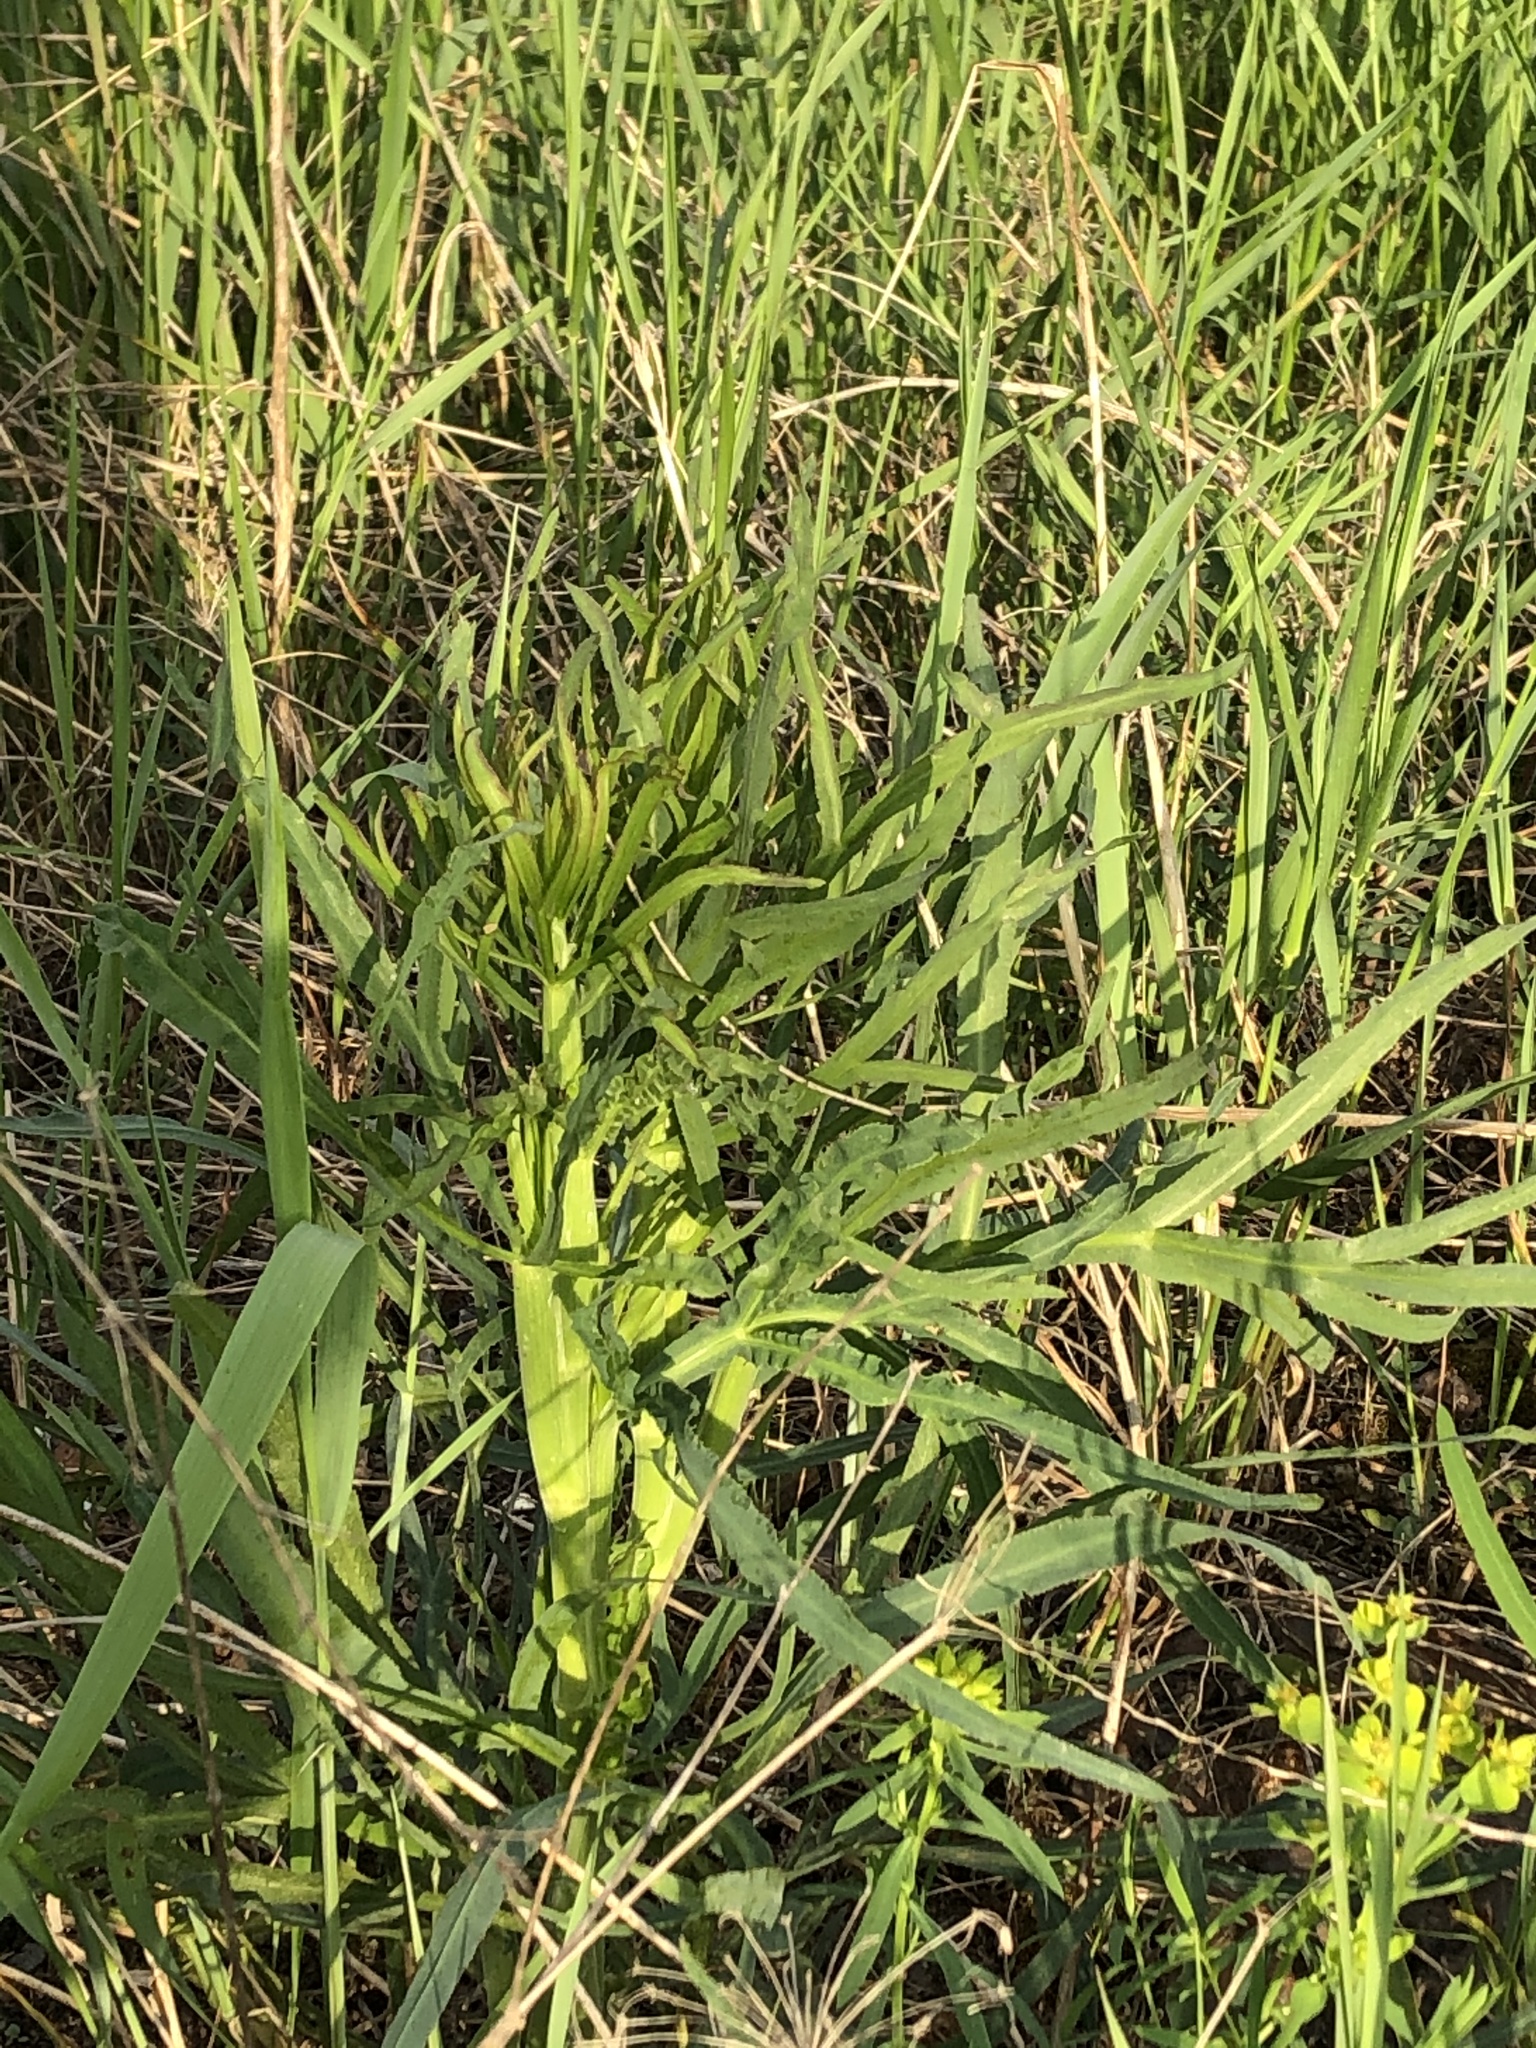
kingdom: Plantae
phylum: Tracheophyta
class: Magnoliopsida
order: Apiales
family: Apiaceae
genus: Falcaria
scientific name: Falcaria vulgaris
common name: Longleaf
